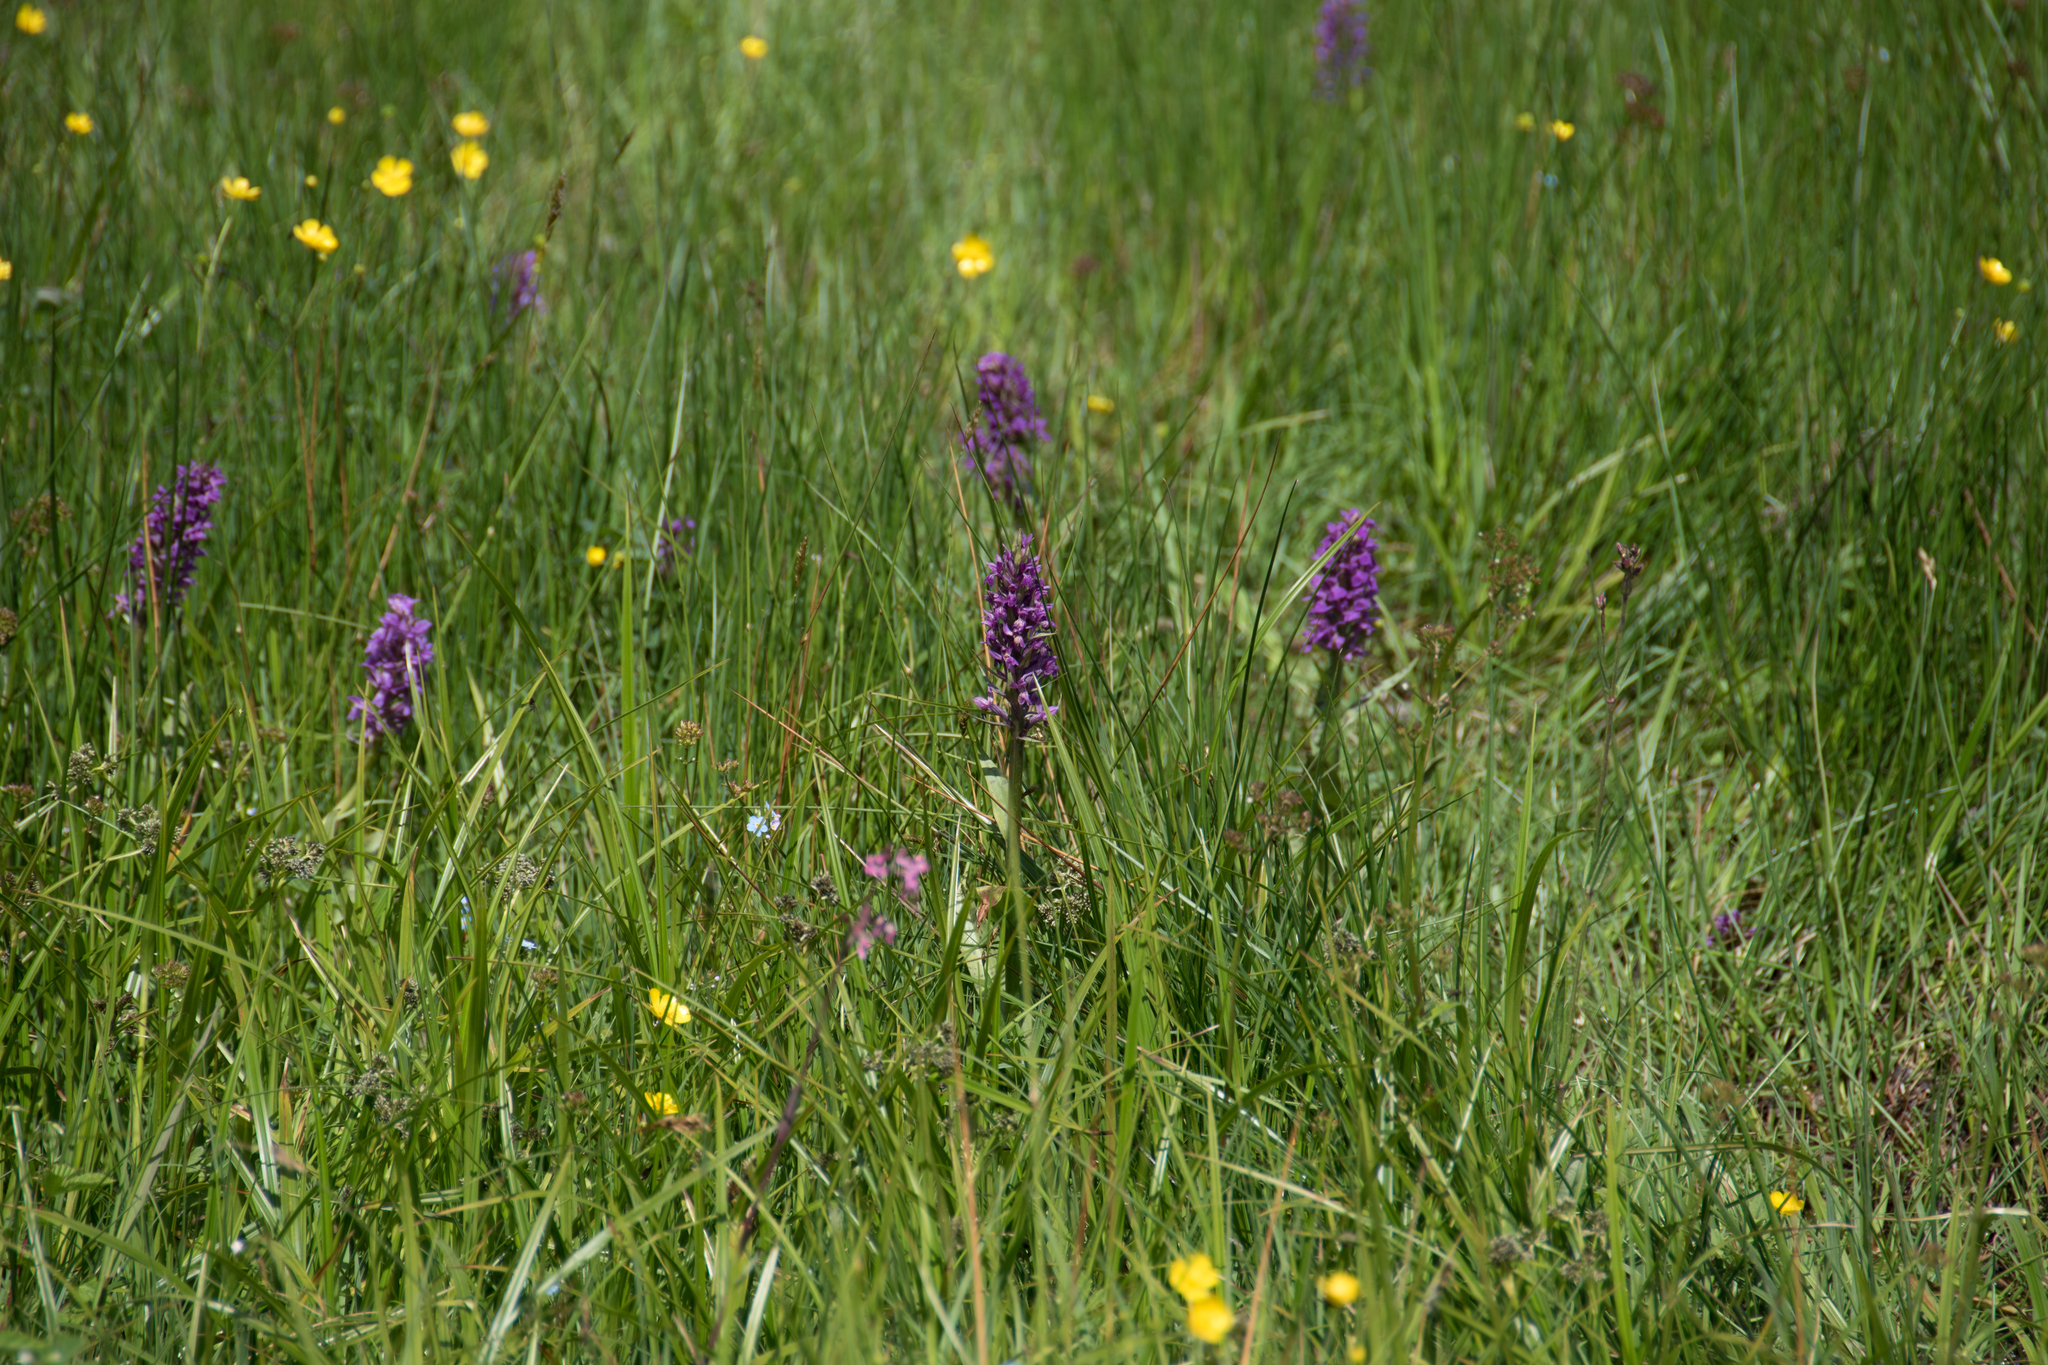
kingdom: Plantae
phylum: Tracheophyta
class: Liliopsida
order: Asparagales
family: Orchidaceae
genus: Dactylorhiza
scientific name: Dactylorhiza majalis
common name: Marsh orchid
